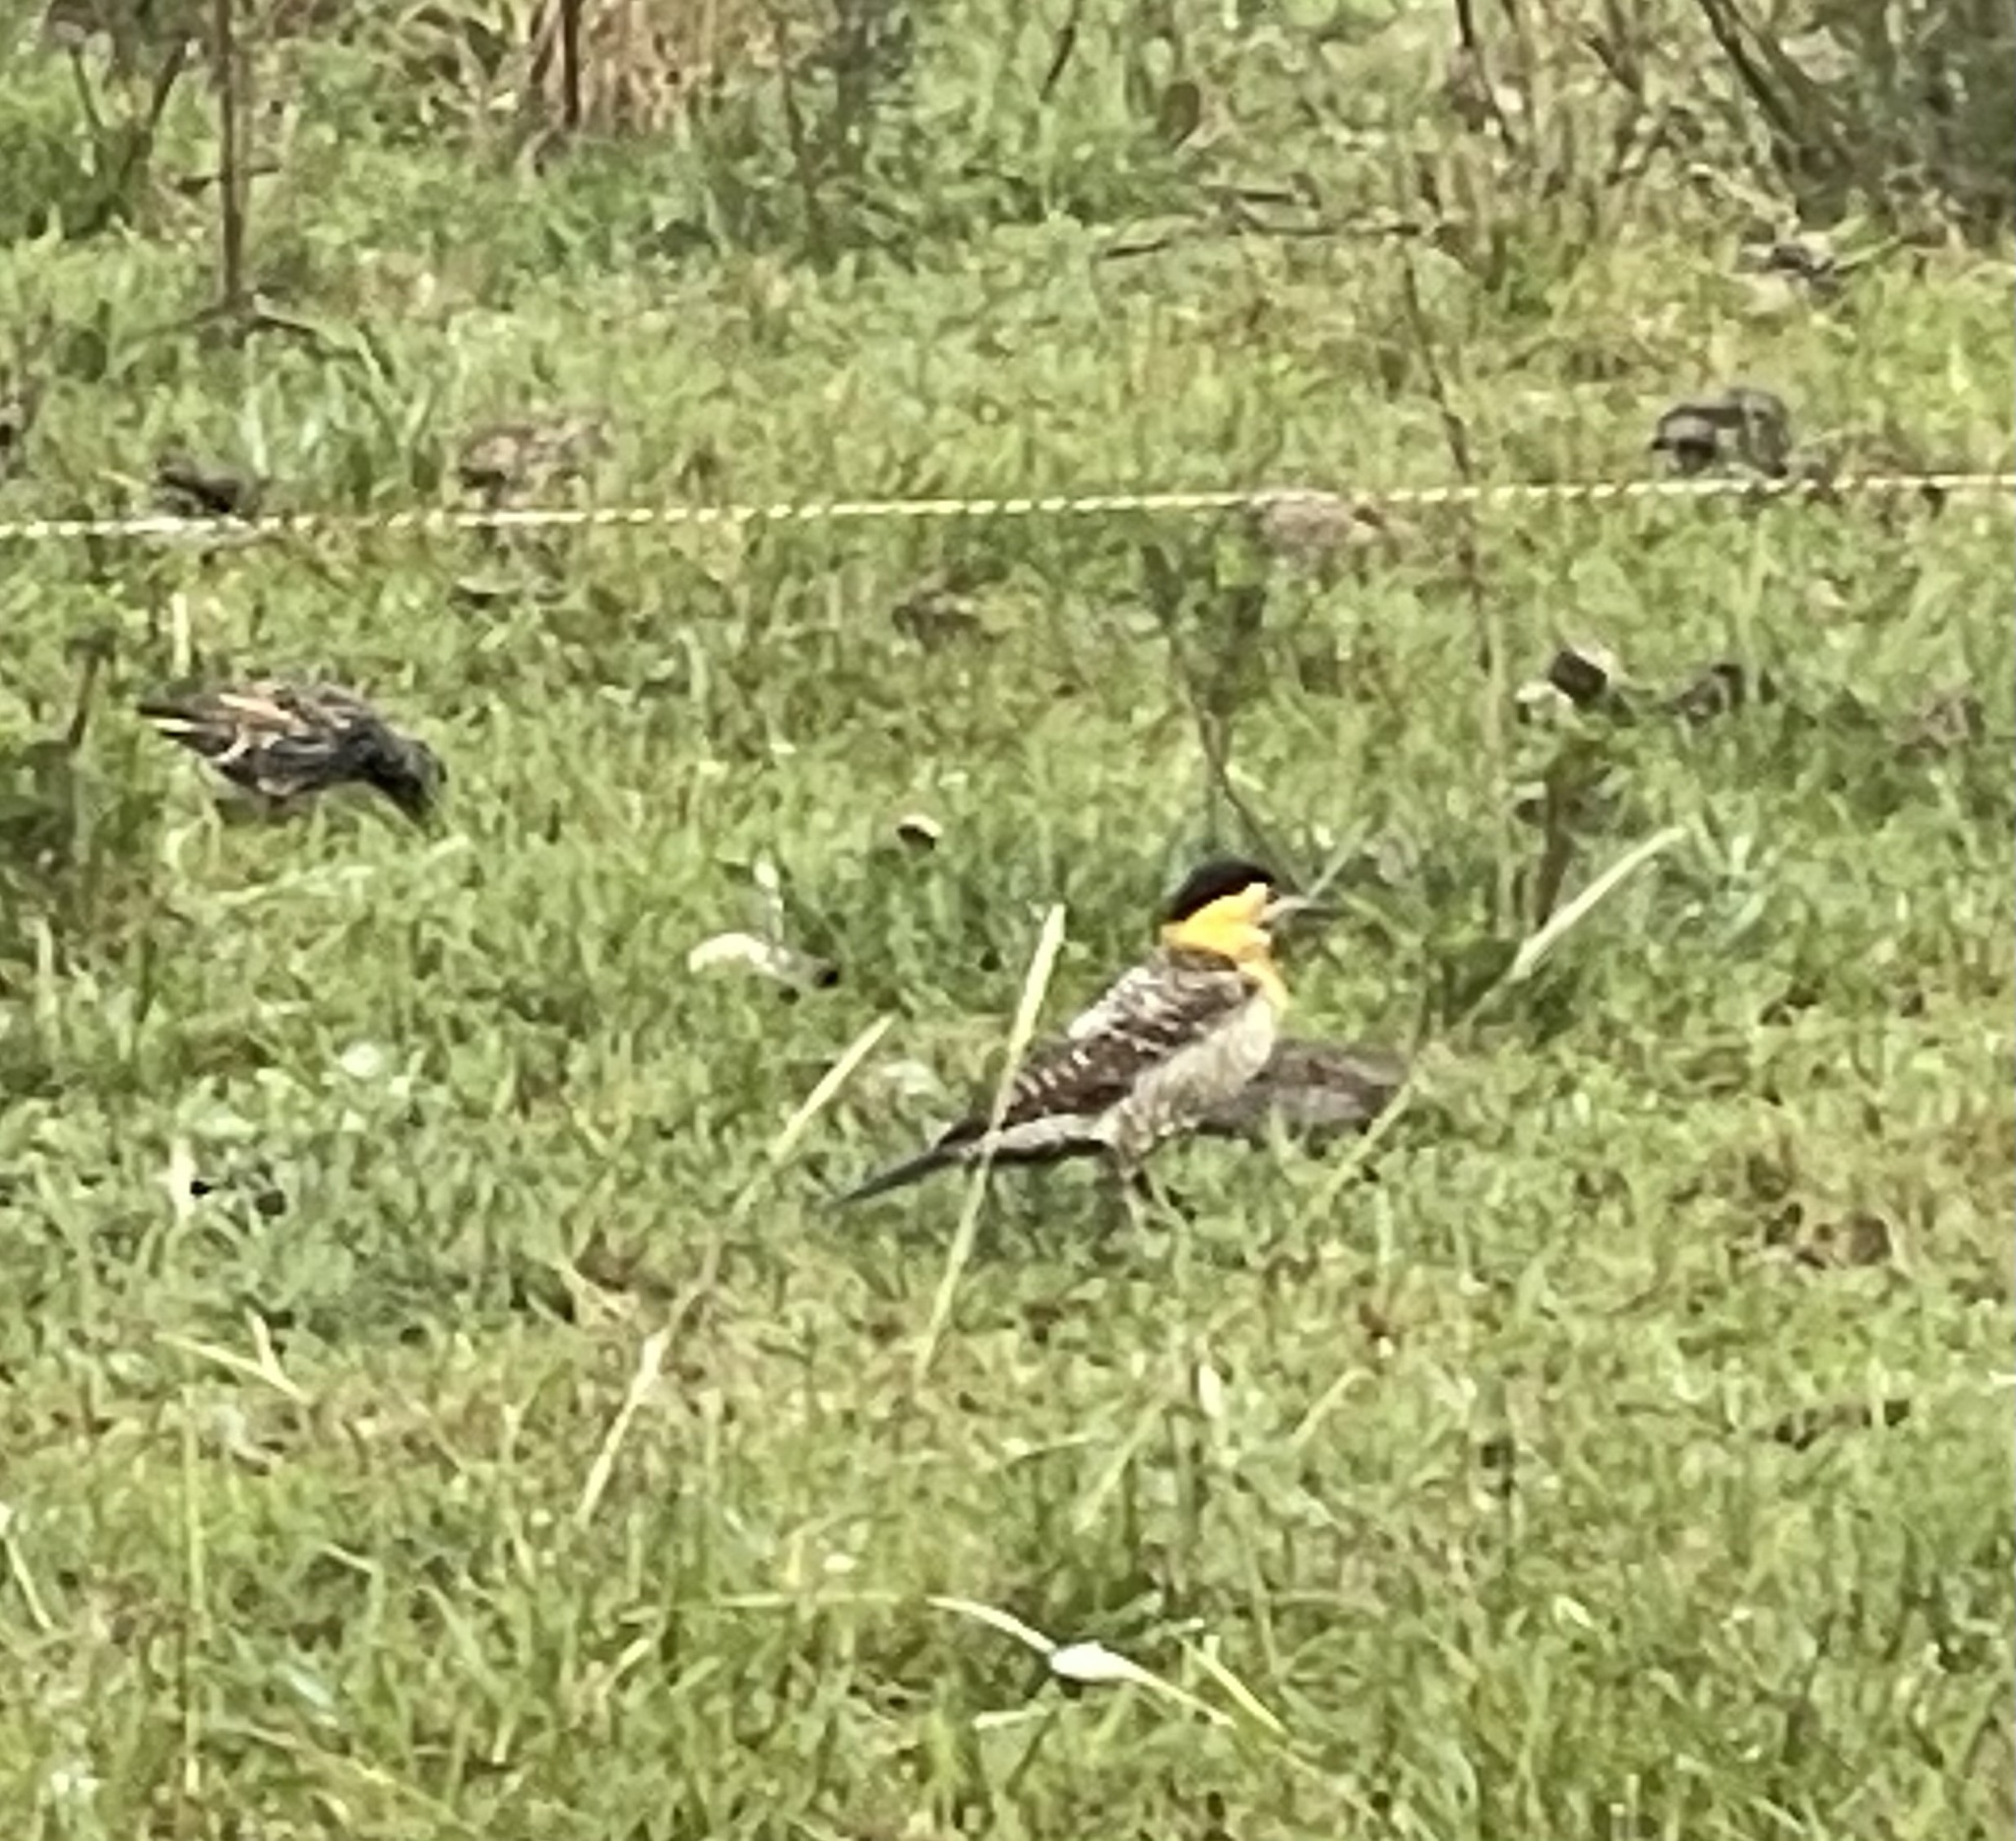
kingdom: Animalia
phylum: Chordata
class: Aves
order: Piciformes
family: Picidae
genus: Colaptes
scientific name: Colaptes campestris
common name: Campo flicker
